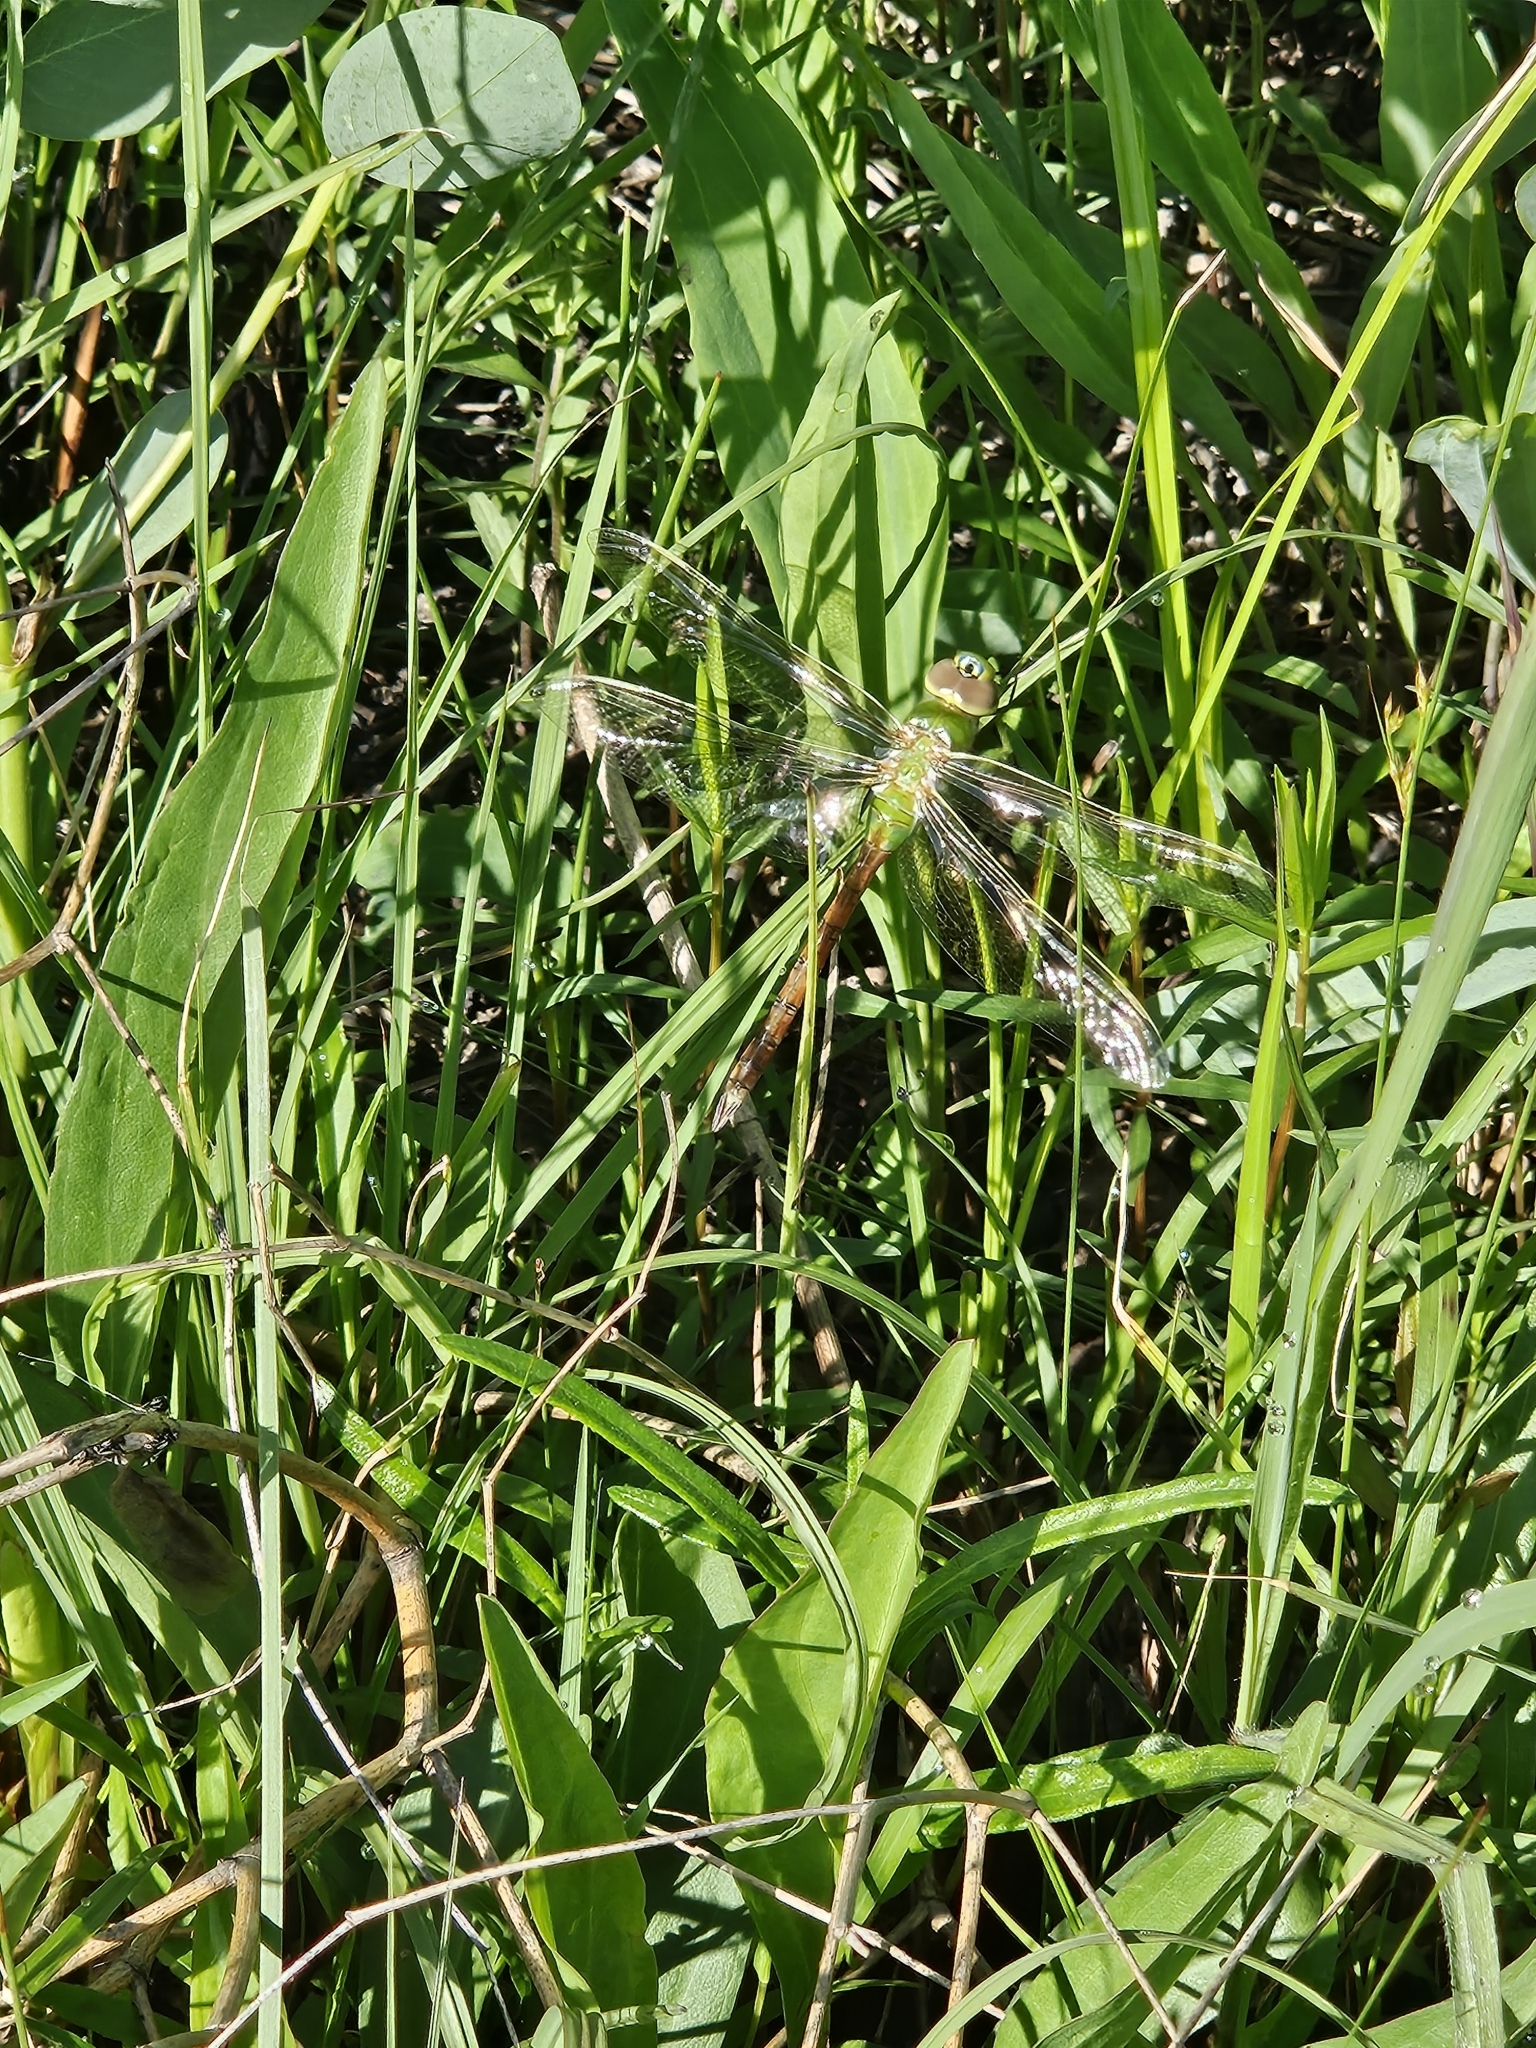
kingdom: Animalia
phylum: Arthropoda
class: Insecta
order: Odonata
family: Aeshnidae
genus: Anax
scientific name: Anax junius
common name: Common green darner
